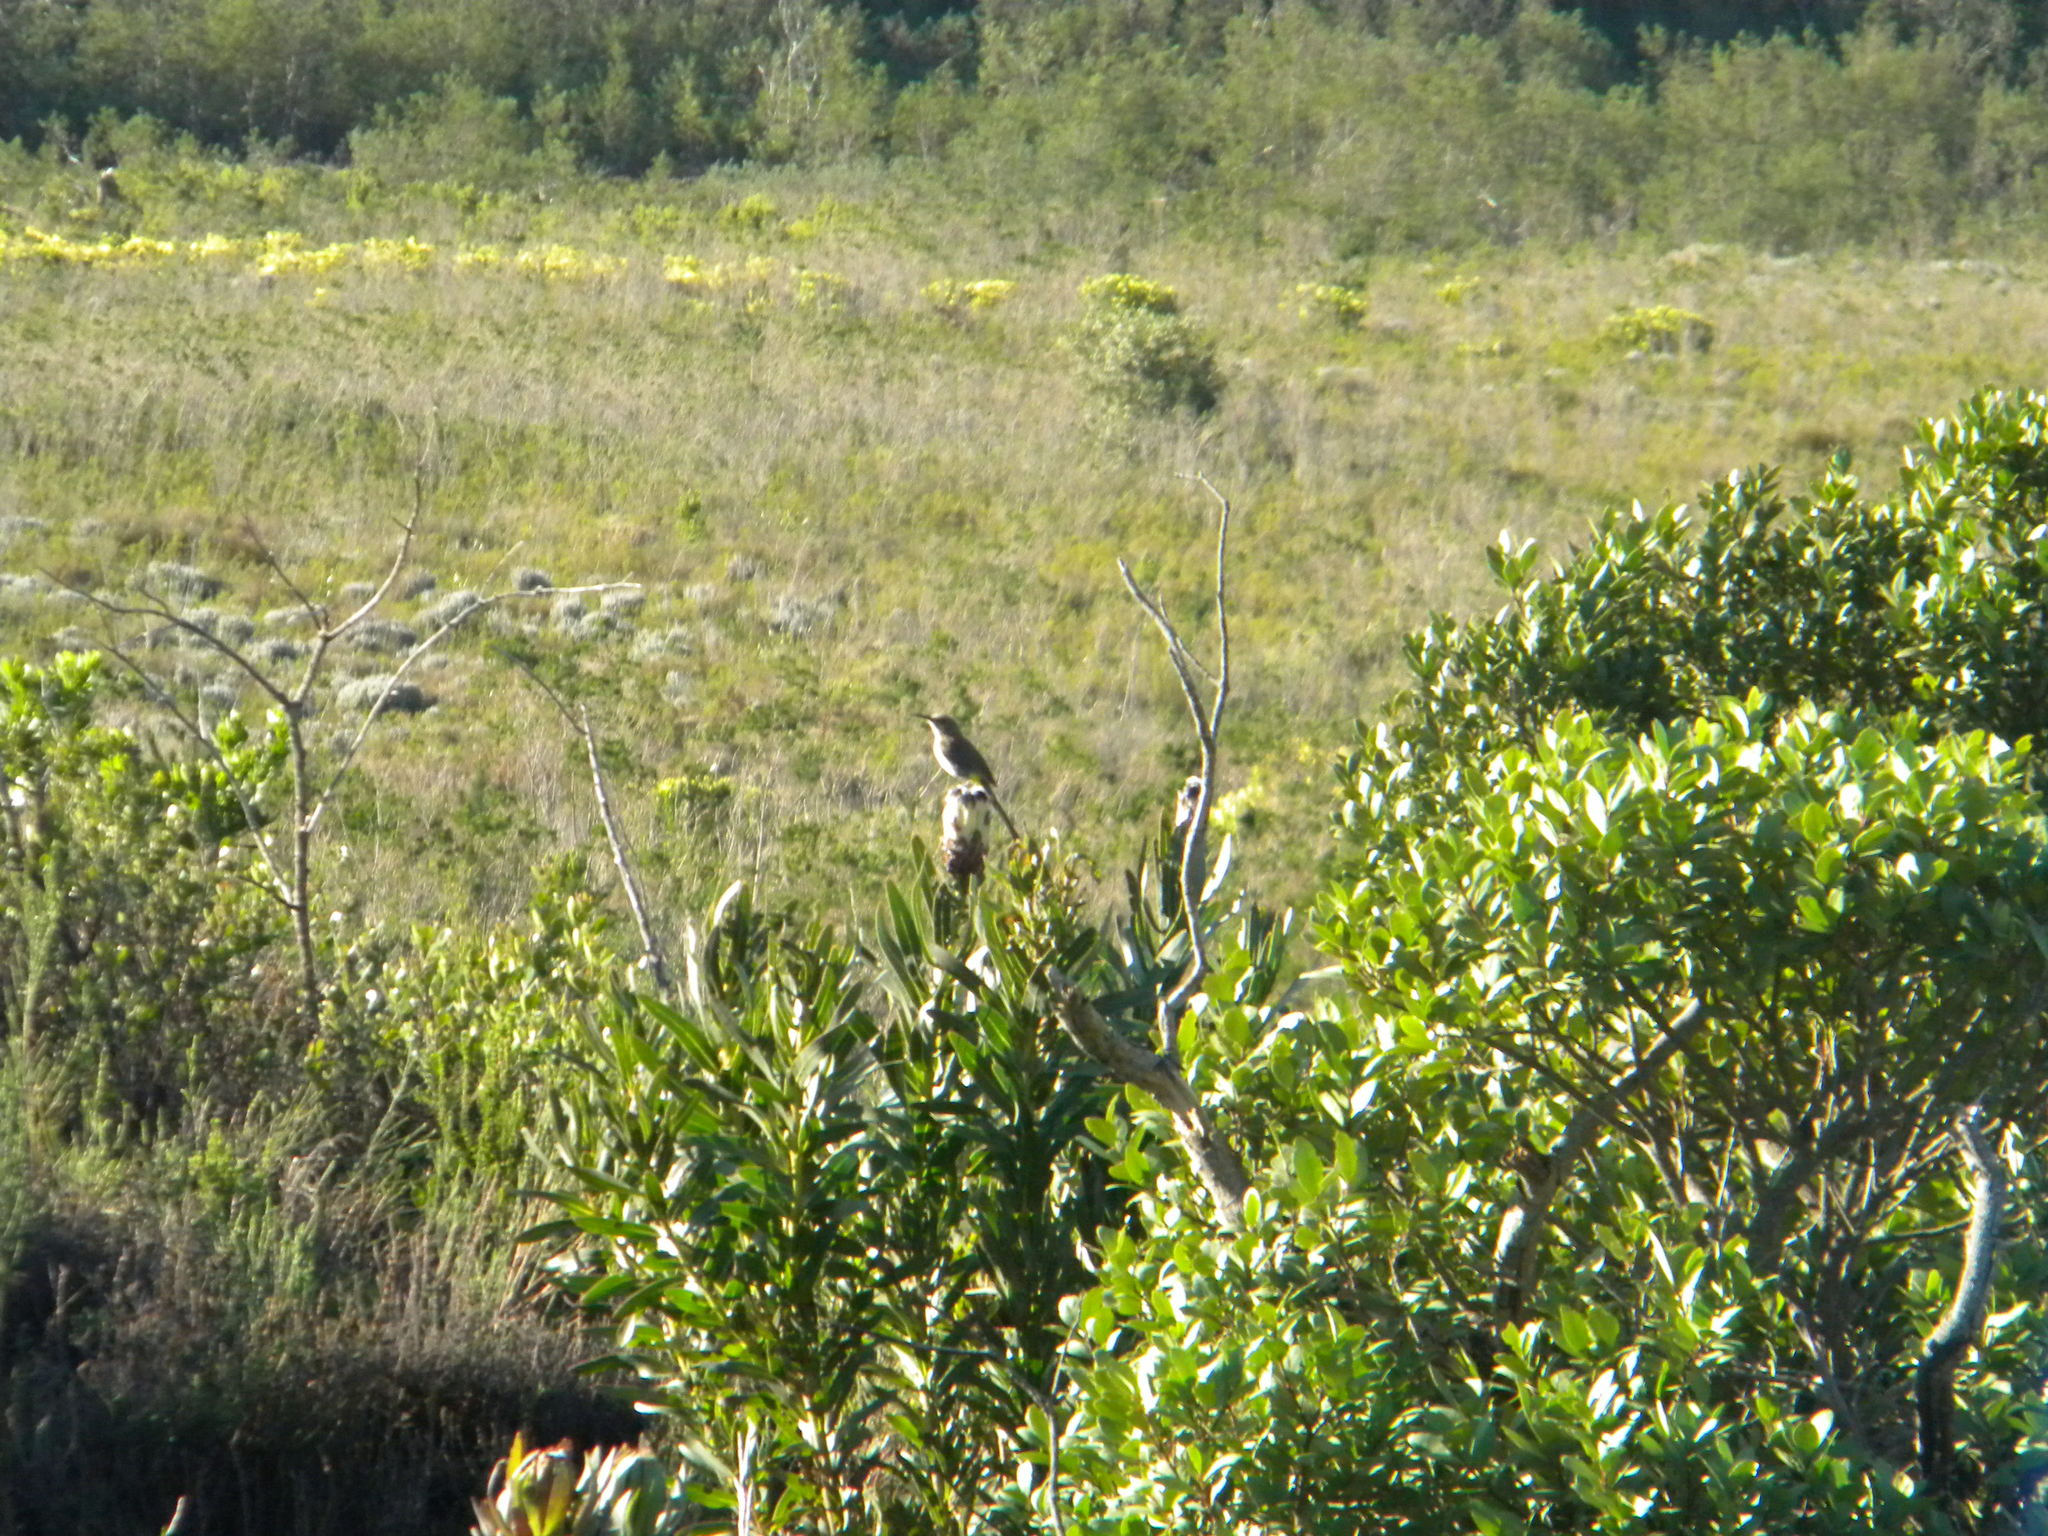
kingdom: Animalia
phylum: Chordata
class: Aves
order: Passeriformes
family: Promeropidae
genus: Promerops
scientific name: Promerops cafer
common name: Cape sugarbird
